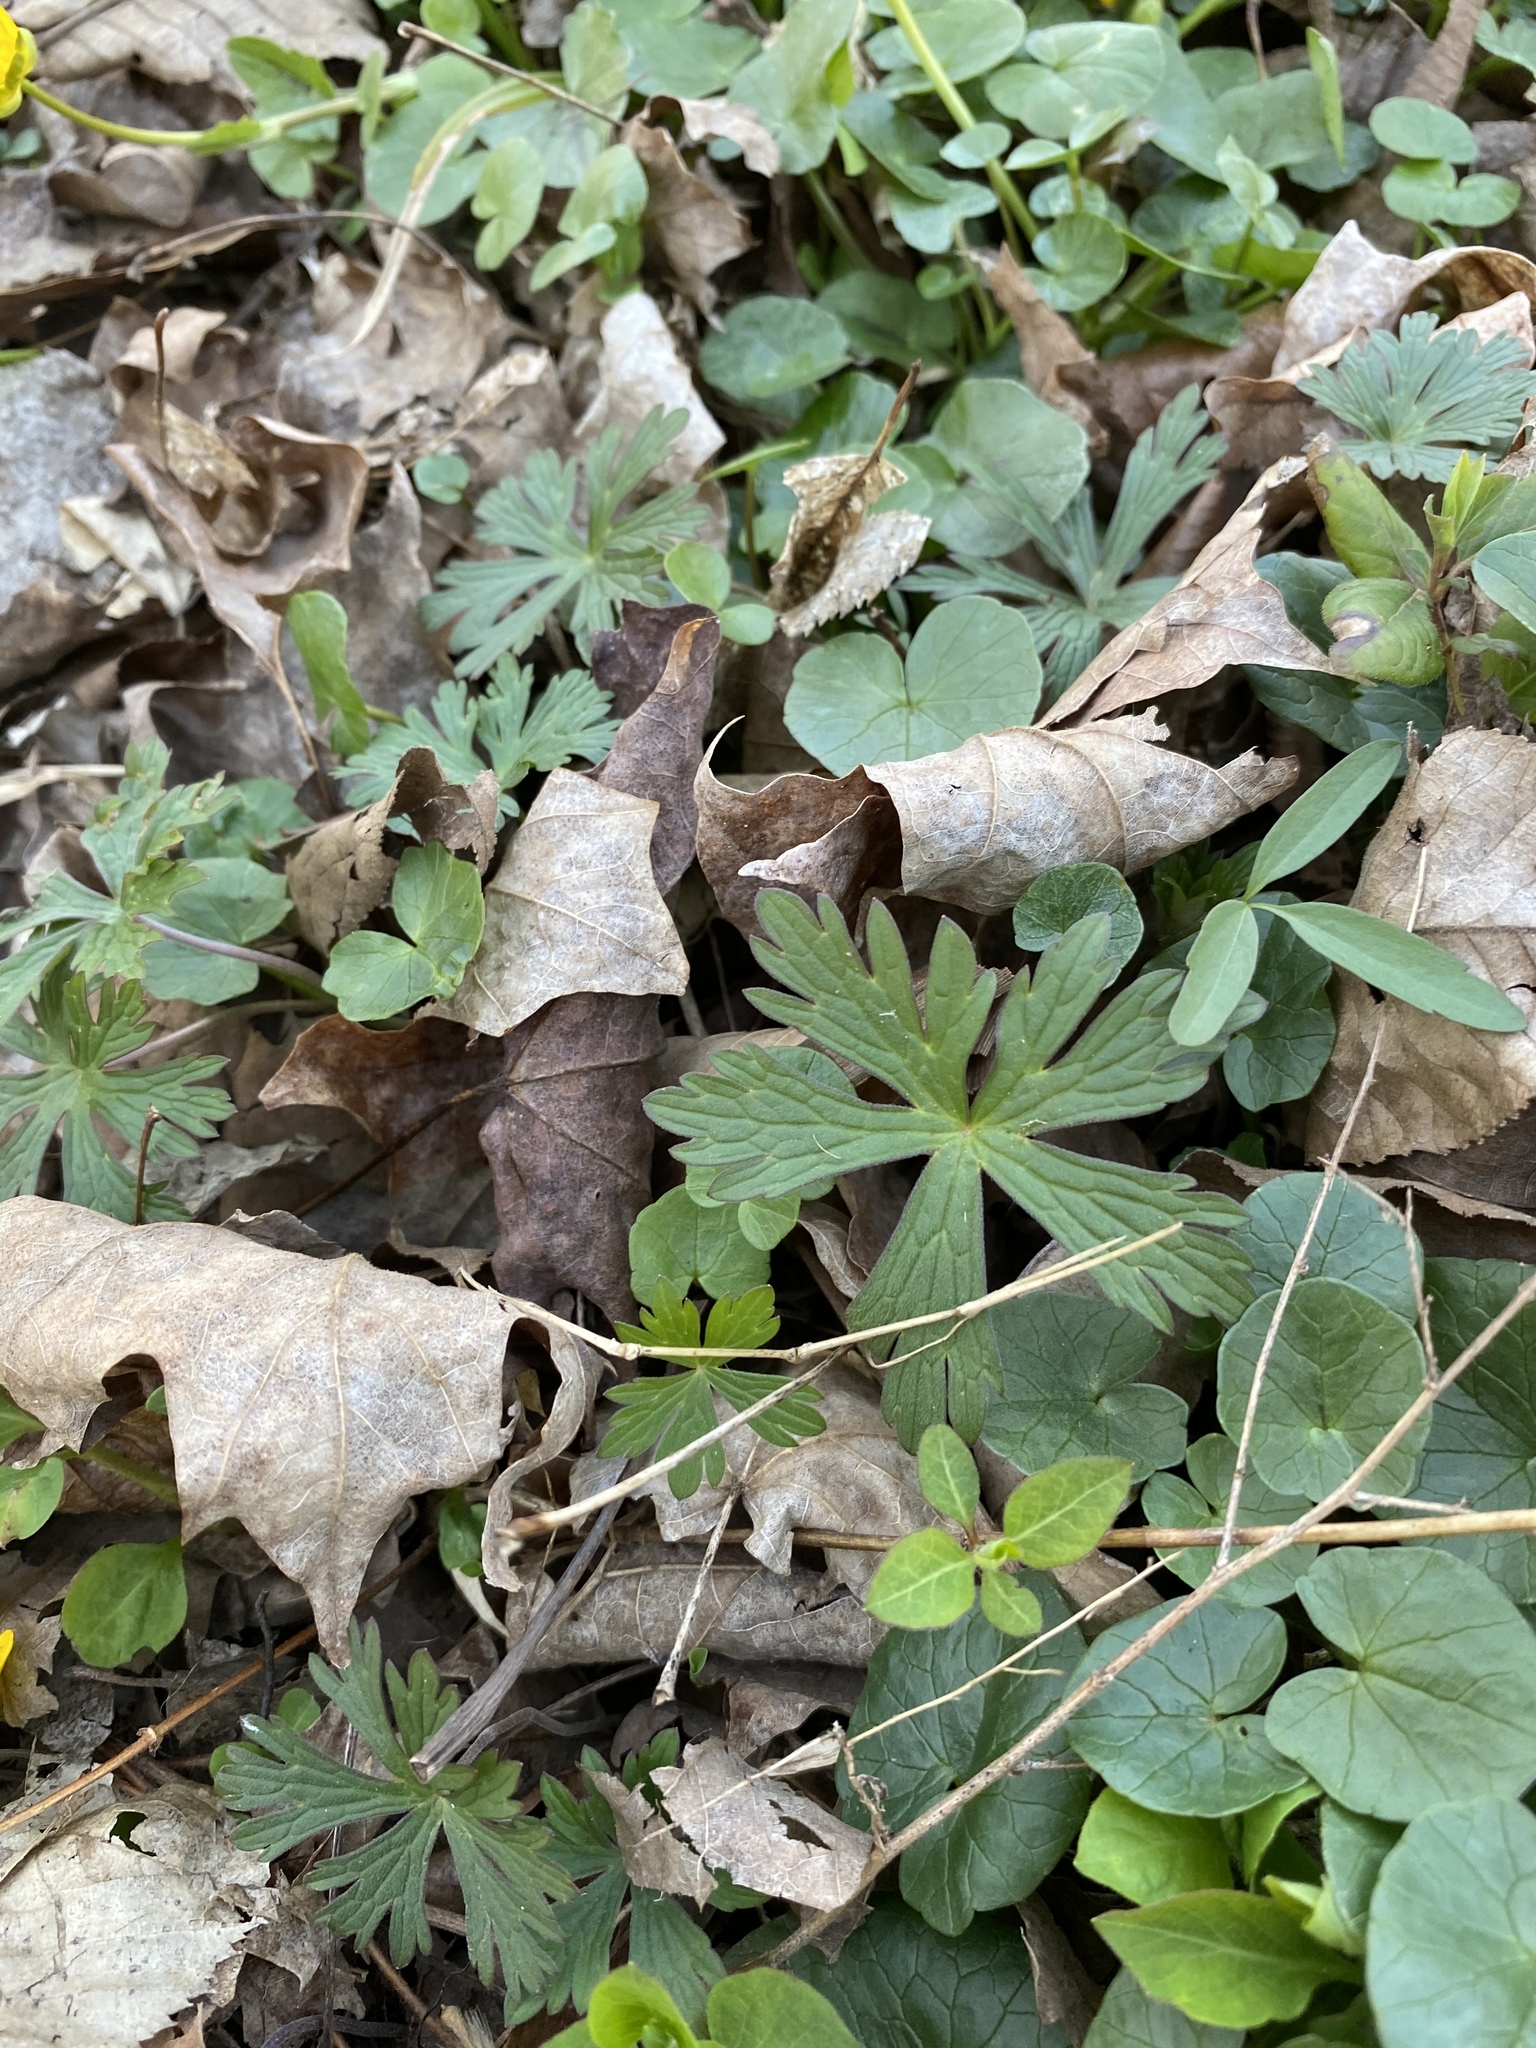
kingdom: Plantae
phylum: Tracheophyta
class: Magnoliopsida
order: Geraniales
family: Geraniaceae
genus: Geranium
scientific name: Geranium maculatum
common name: Spotted geranium
